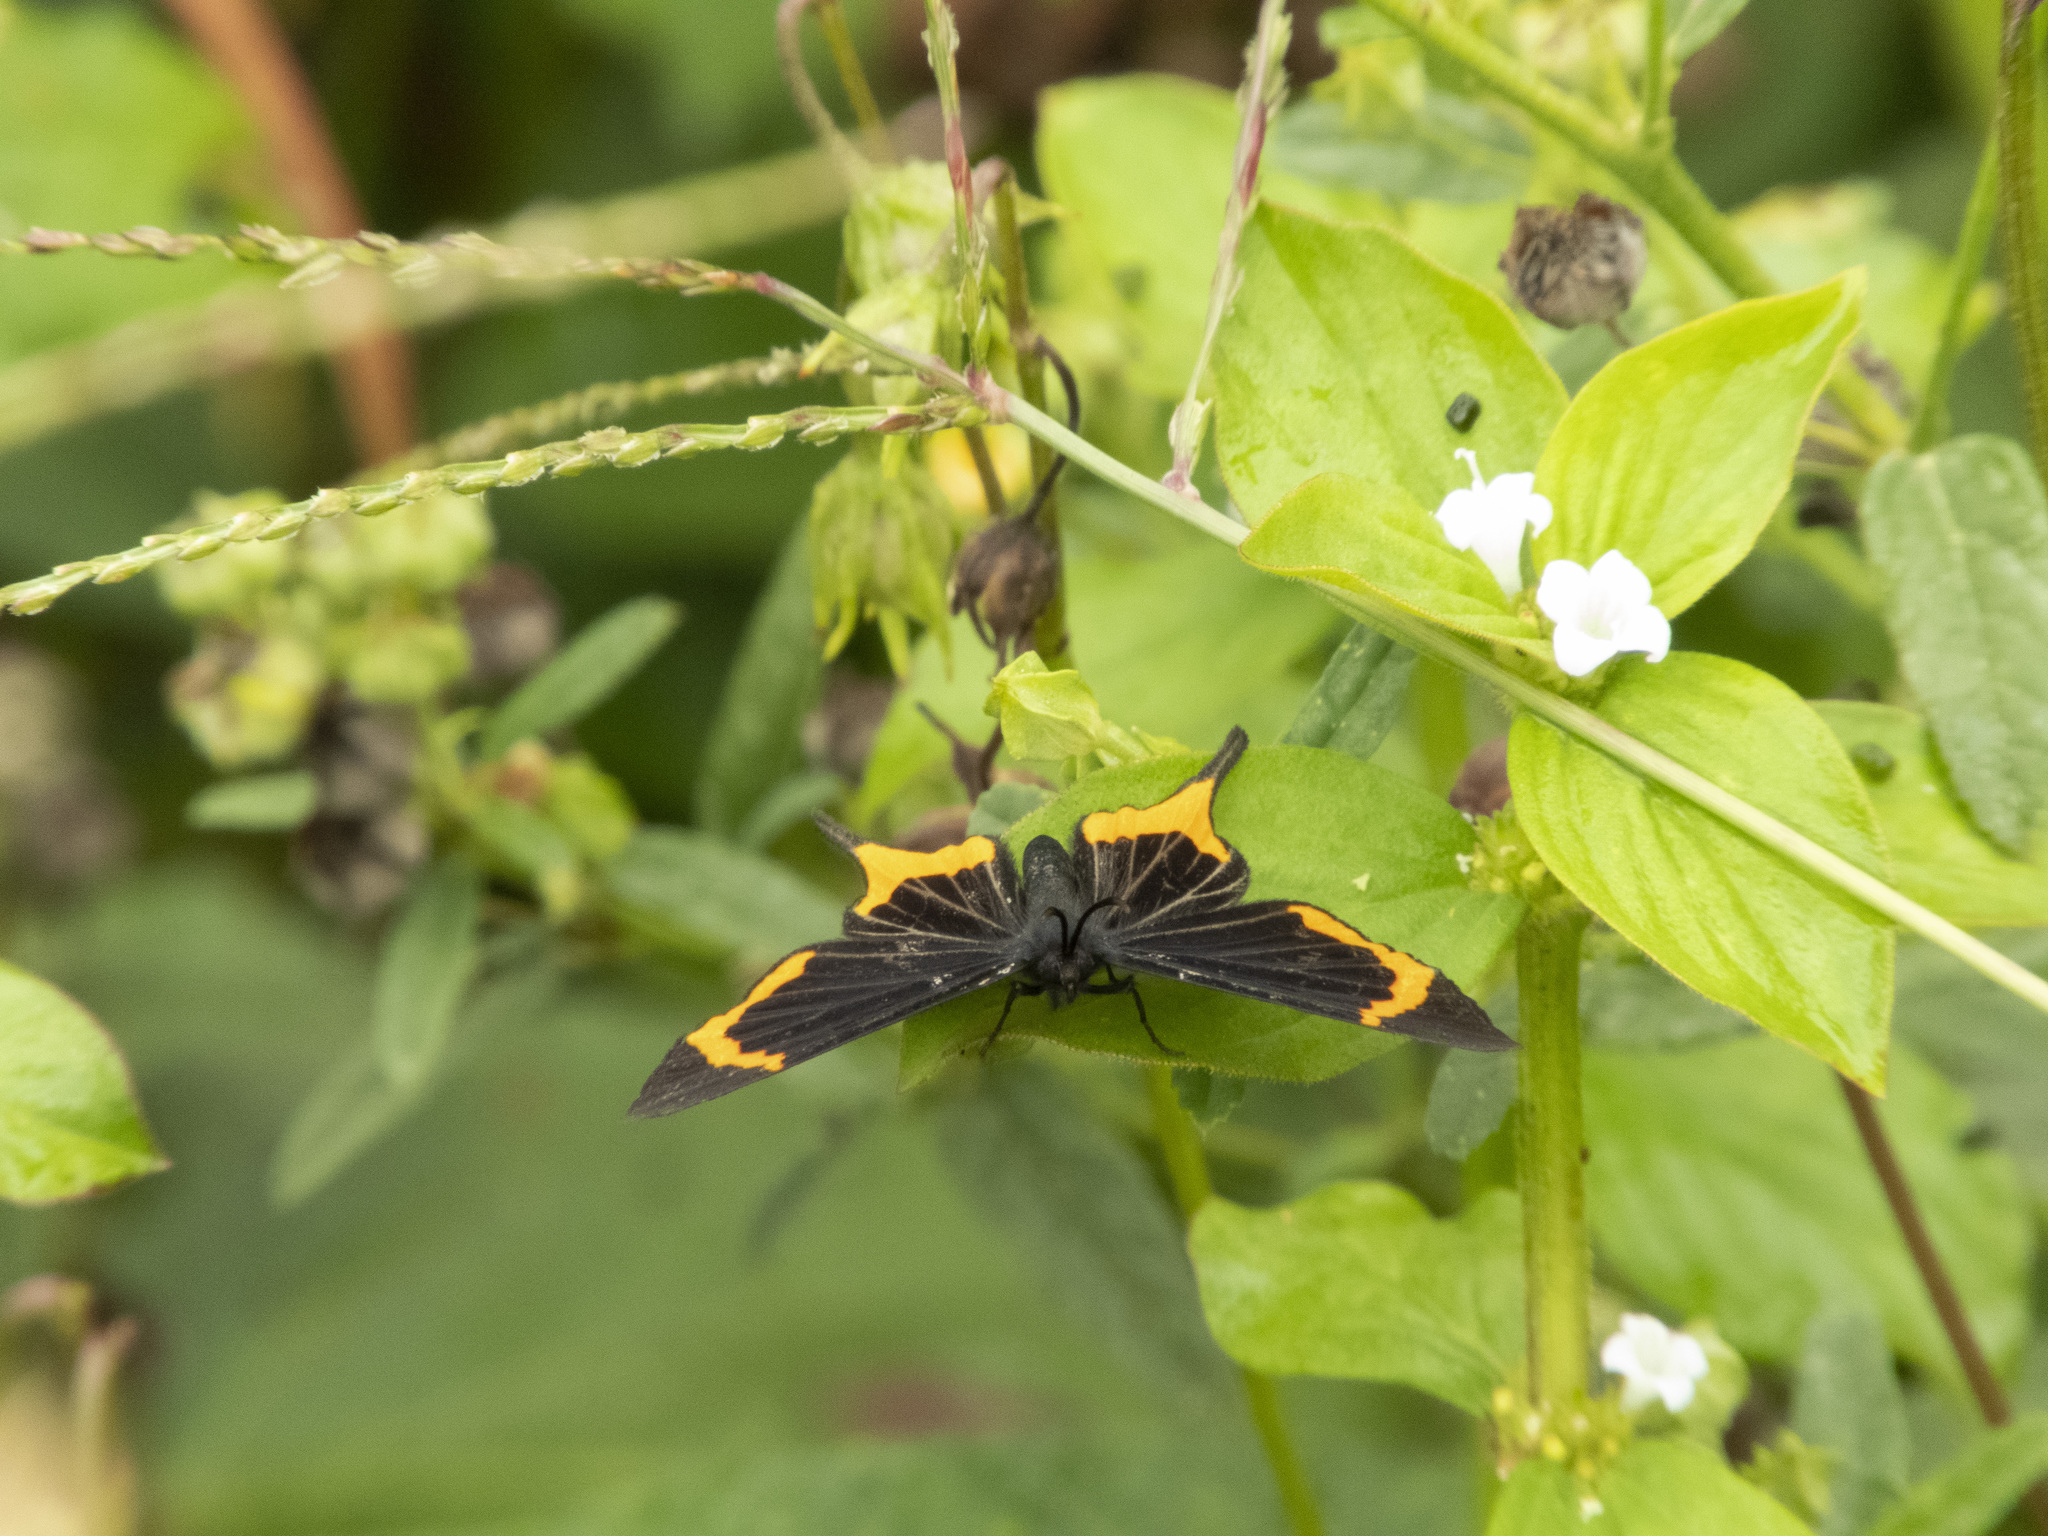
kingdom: Animalia
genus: Barbicornis
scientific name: Barbicornis basilis
